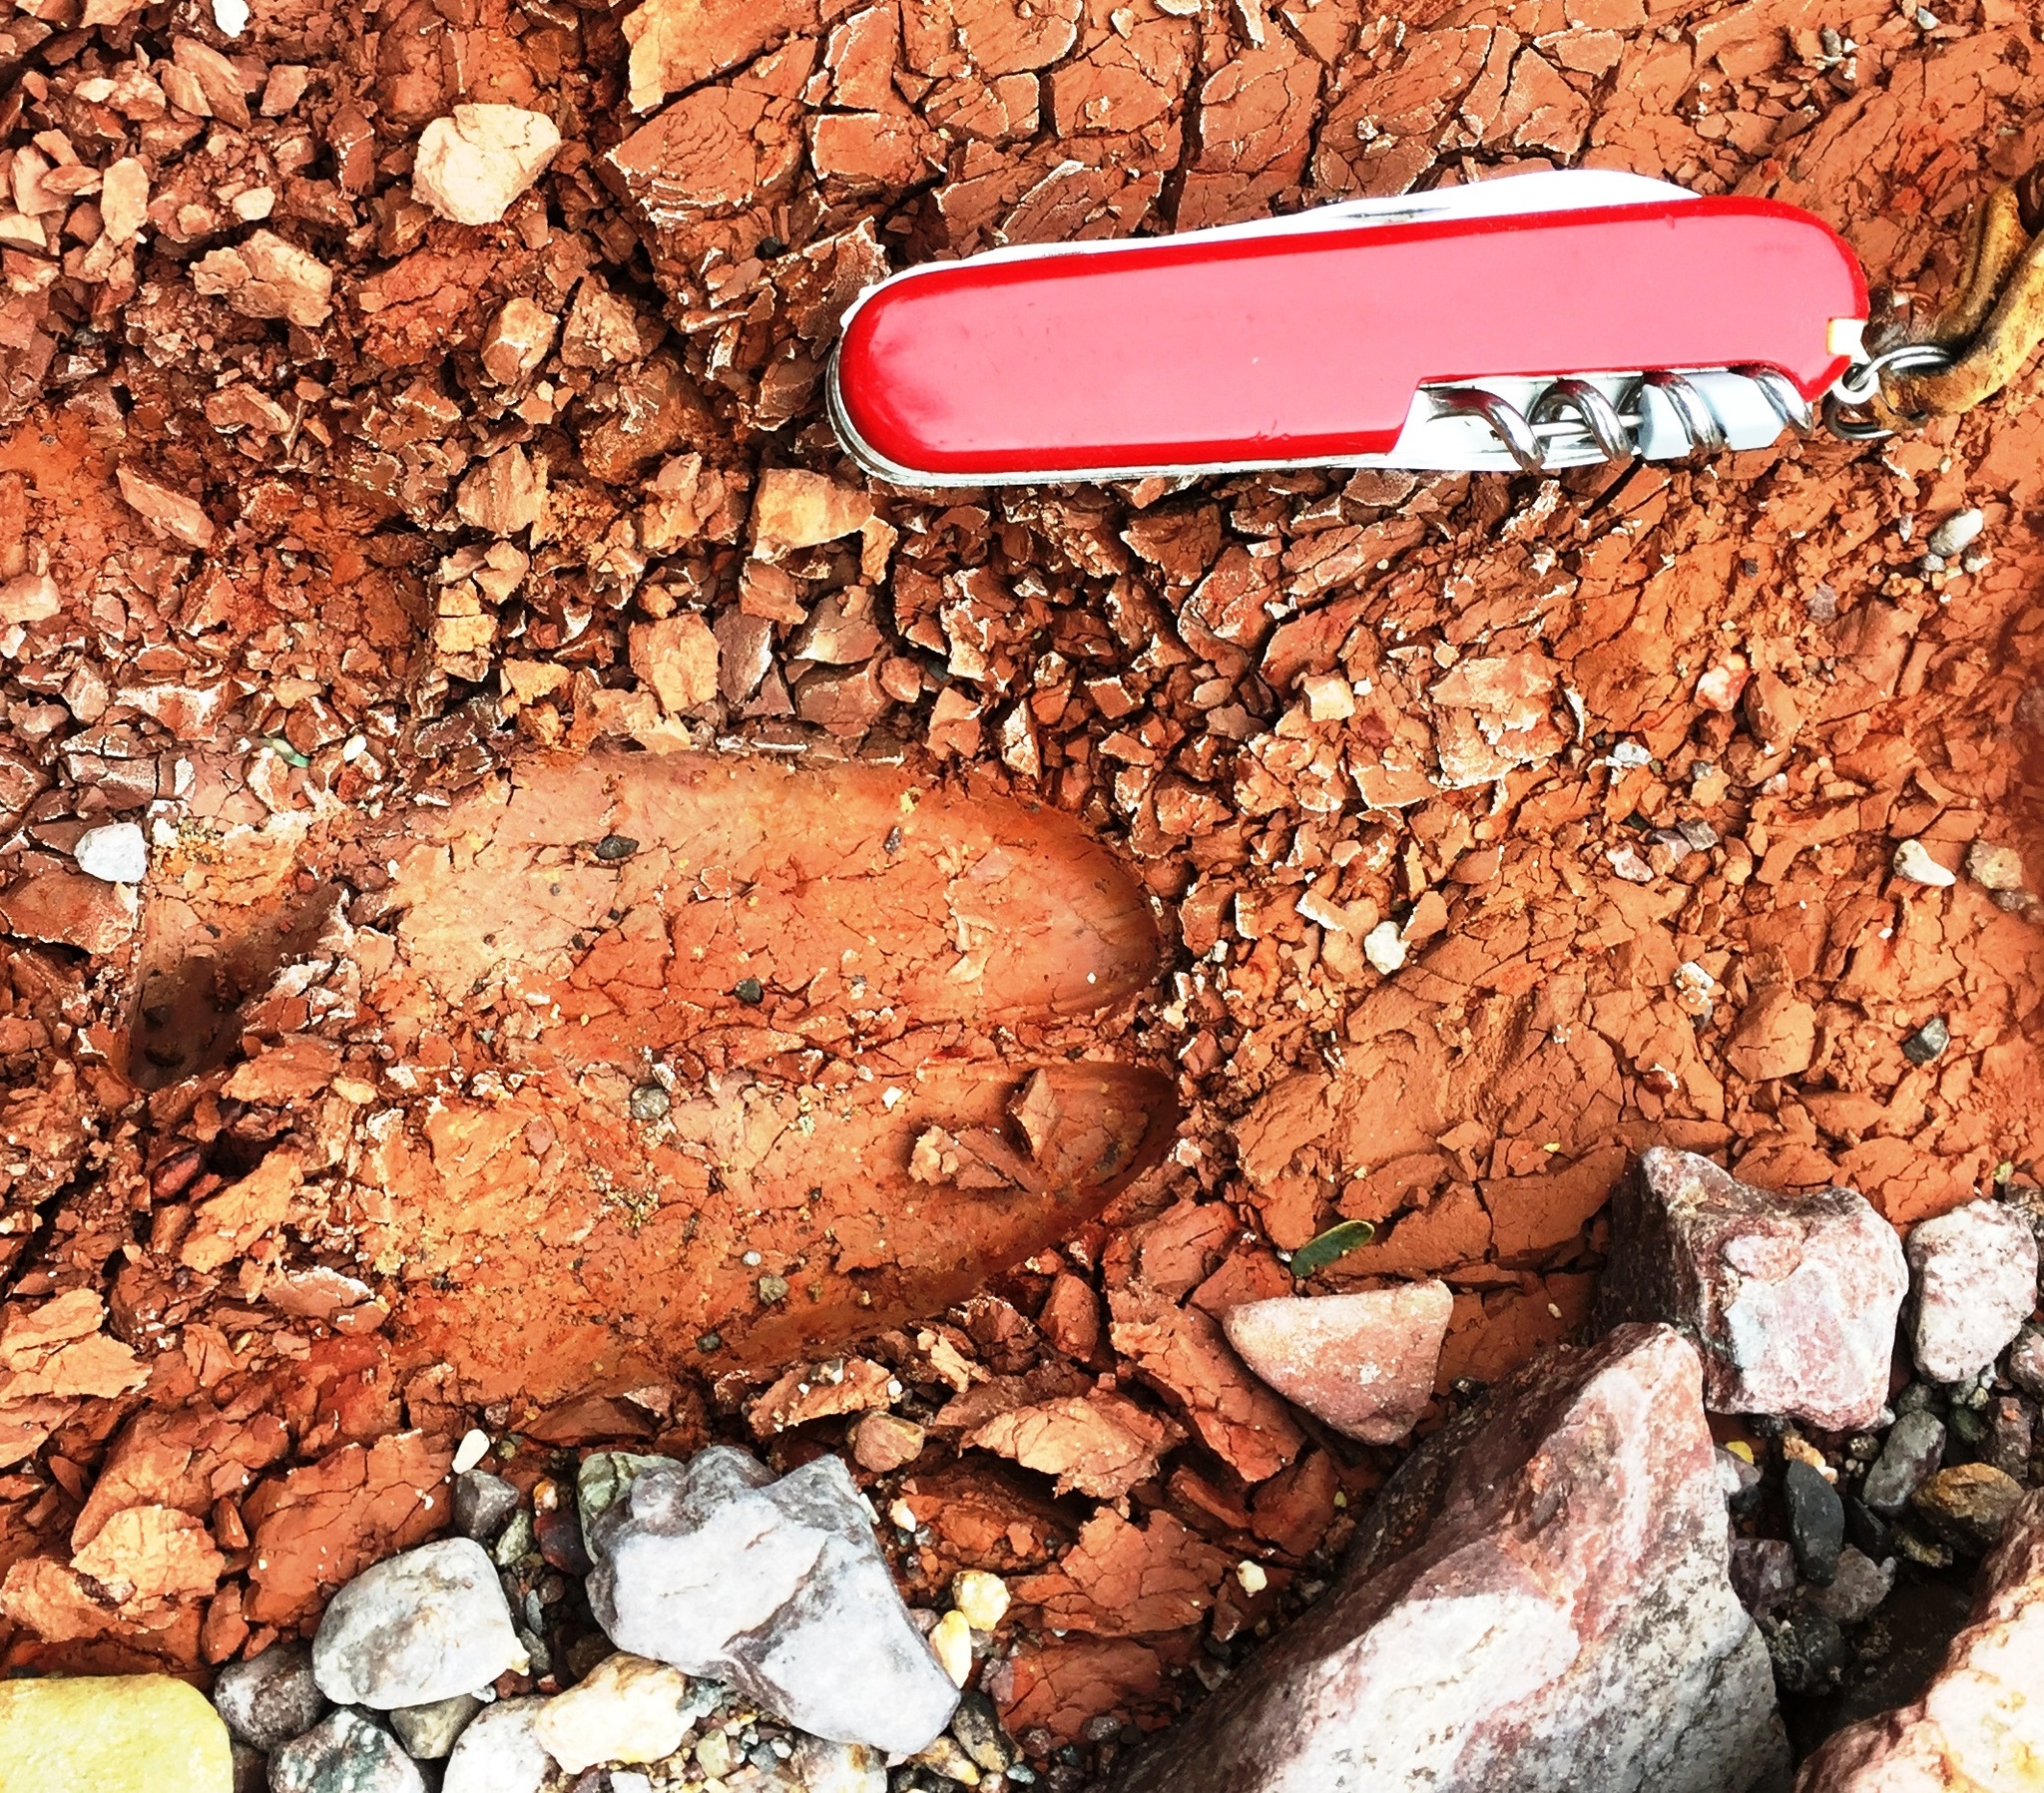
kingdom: Animalia
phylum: Chordata
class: Mammalia
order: Artiodactyla
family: Bovidae
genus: Ovis
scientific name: Ovis canadensis
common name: Bighorn sheep
